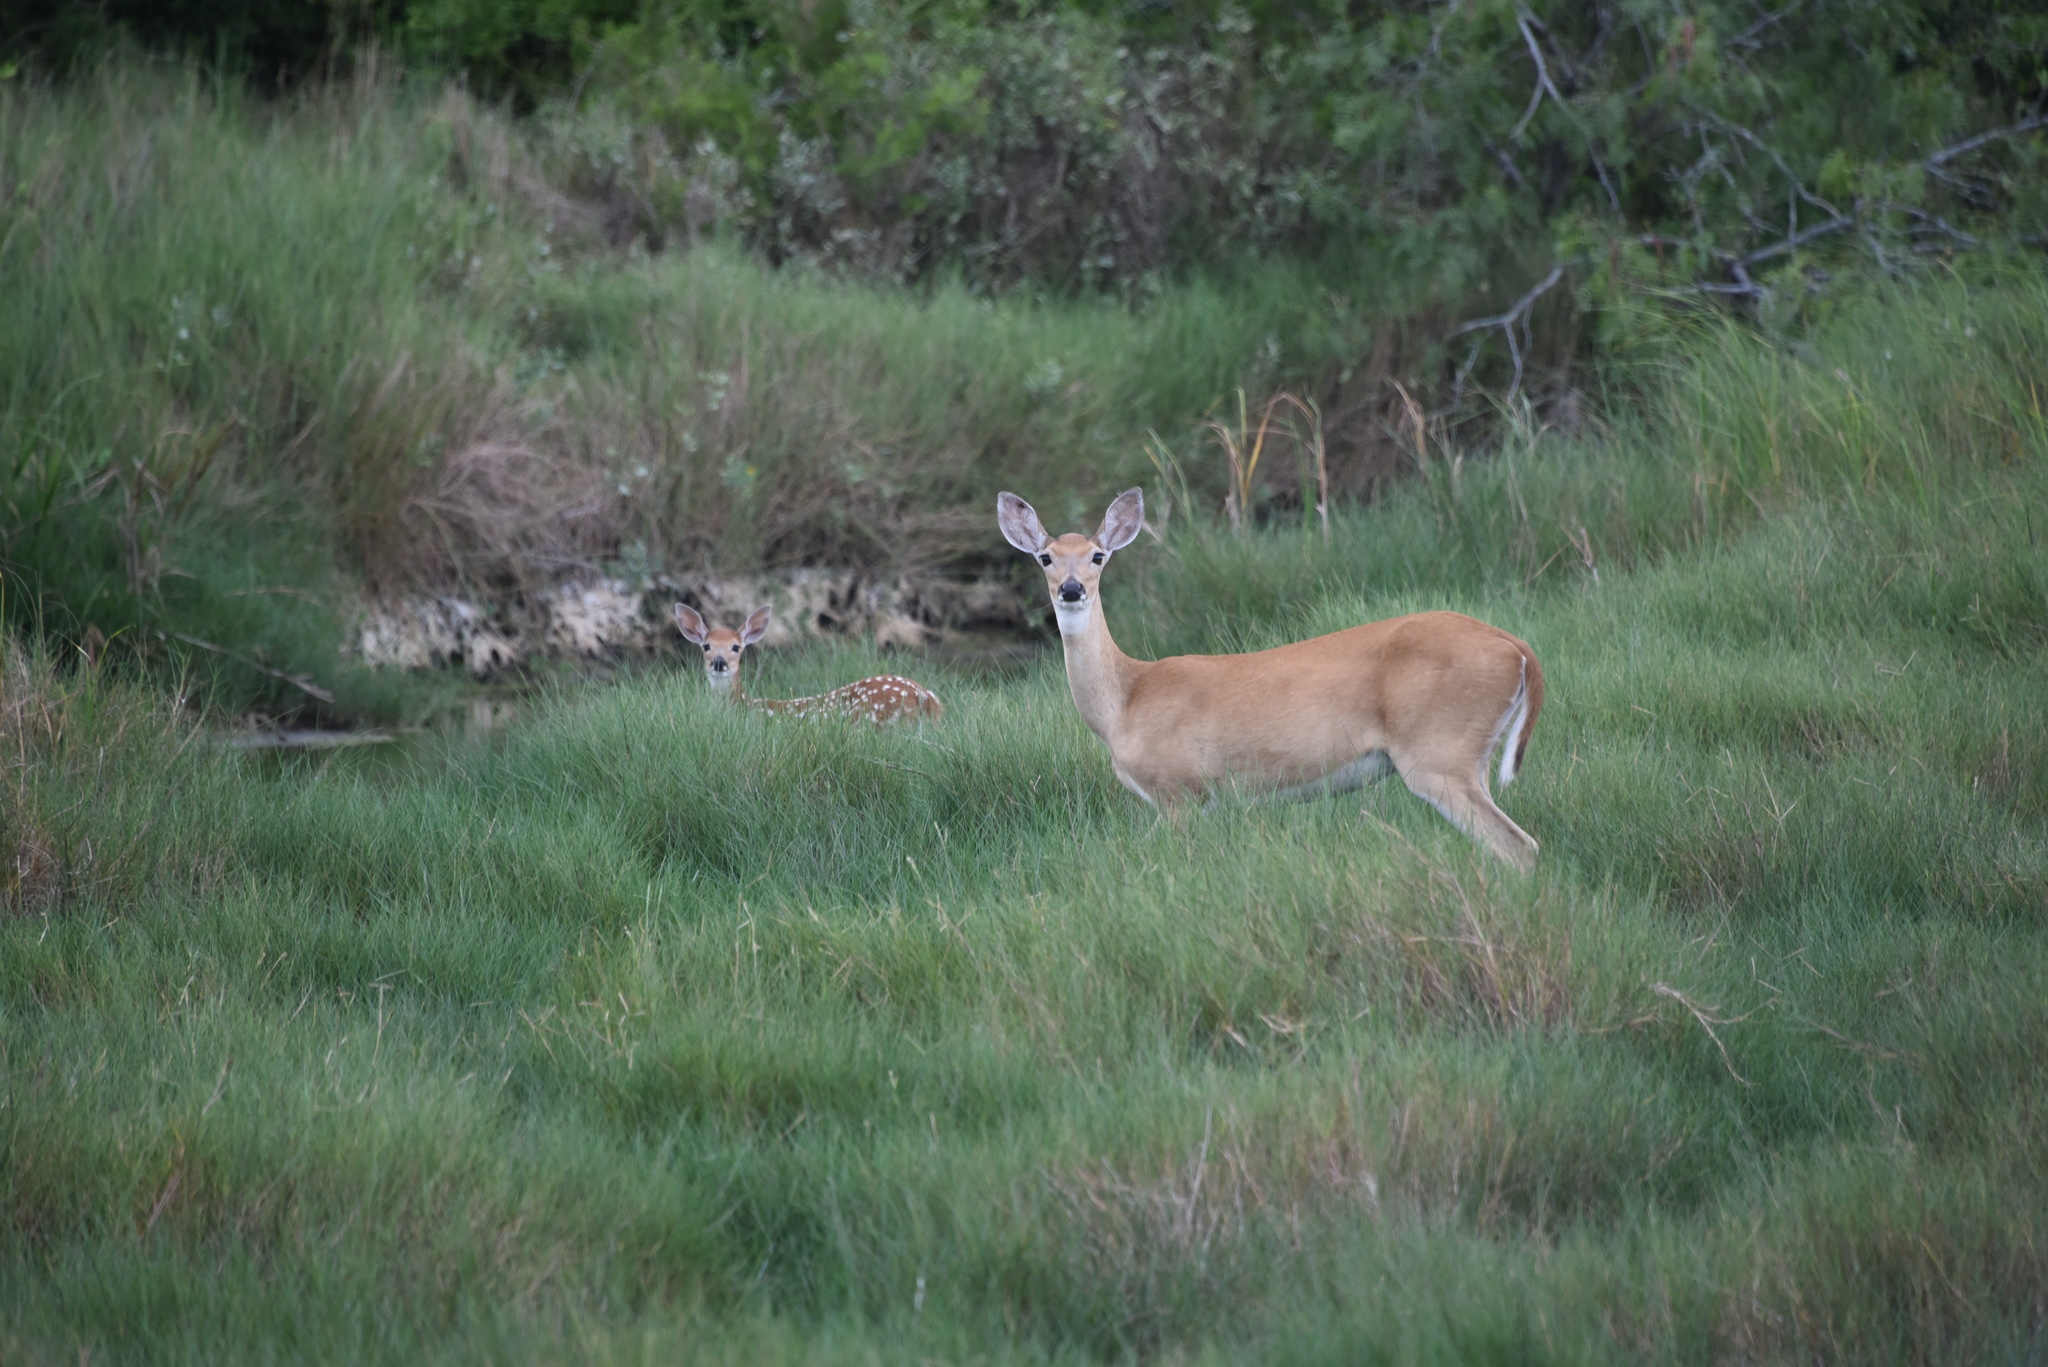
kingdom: Animalia
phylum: Chordata
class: Mammalia
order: Artiodactyla
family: Cervidae
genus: Odocoileus
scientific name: Odocoileus virginianus
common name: White-tailed deer
